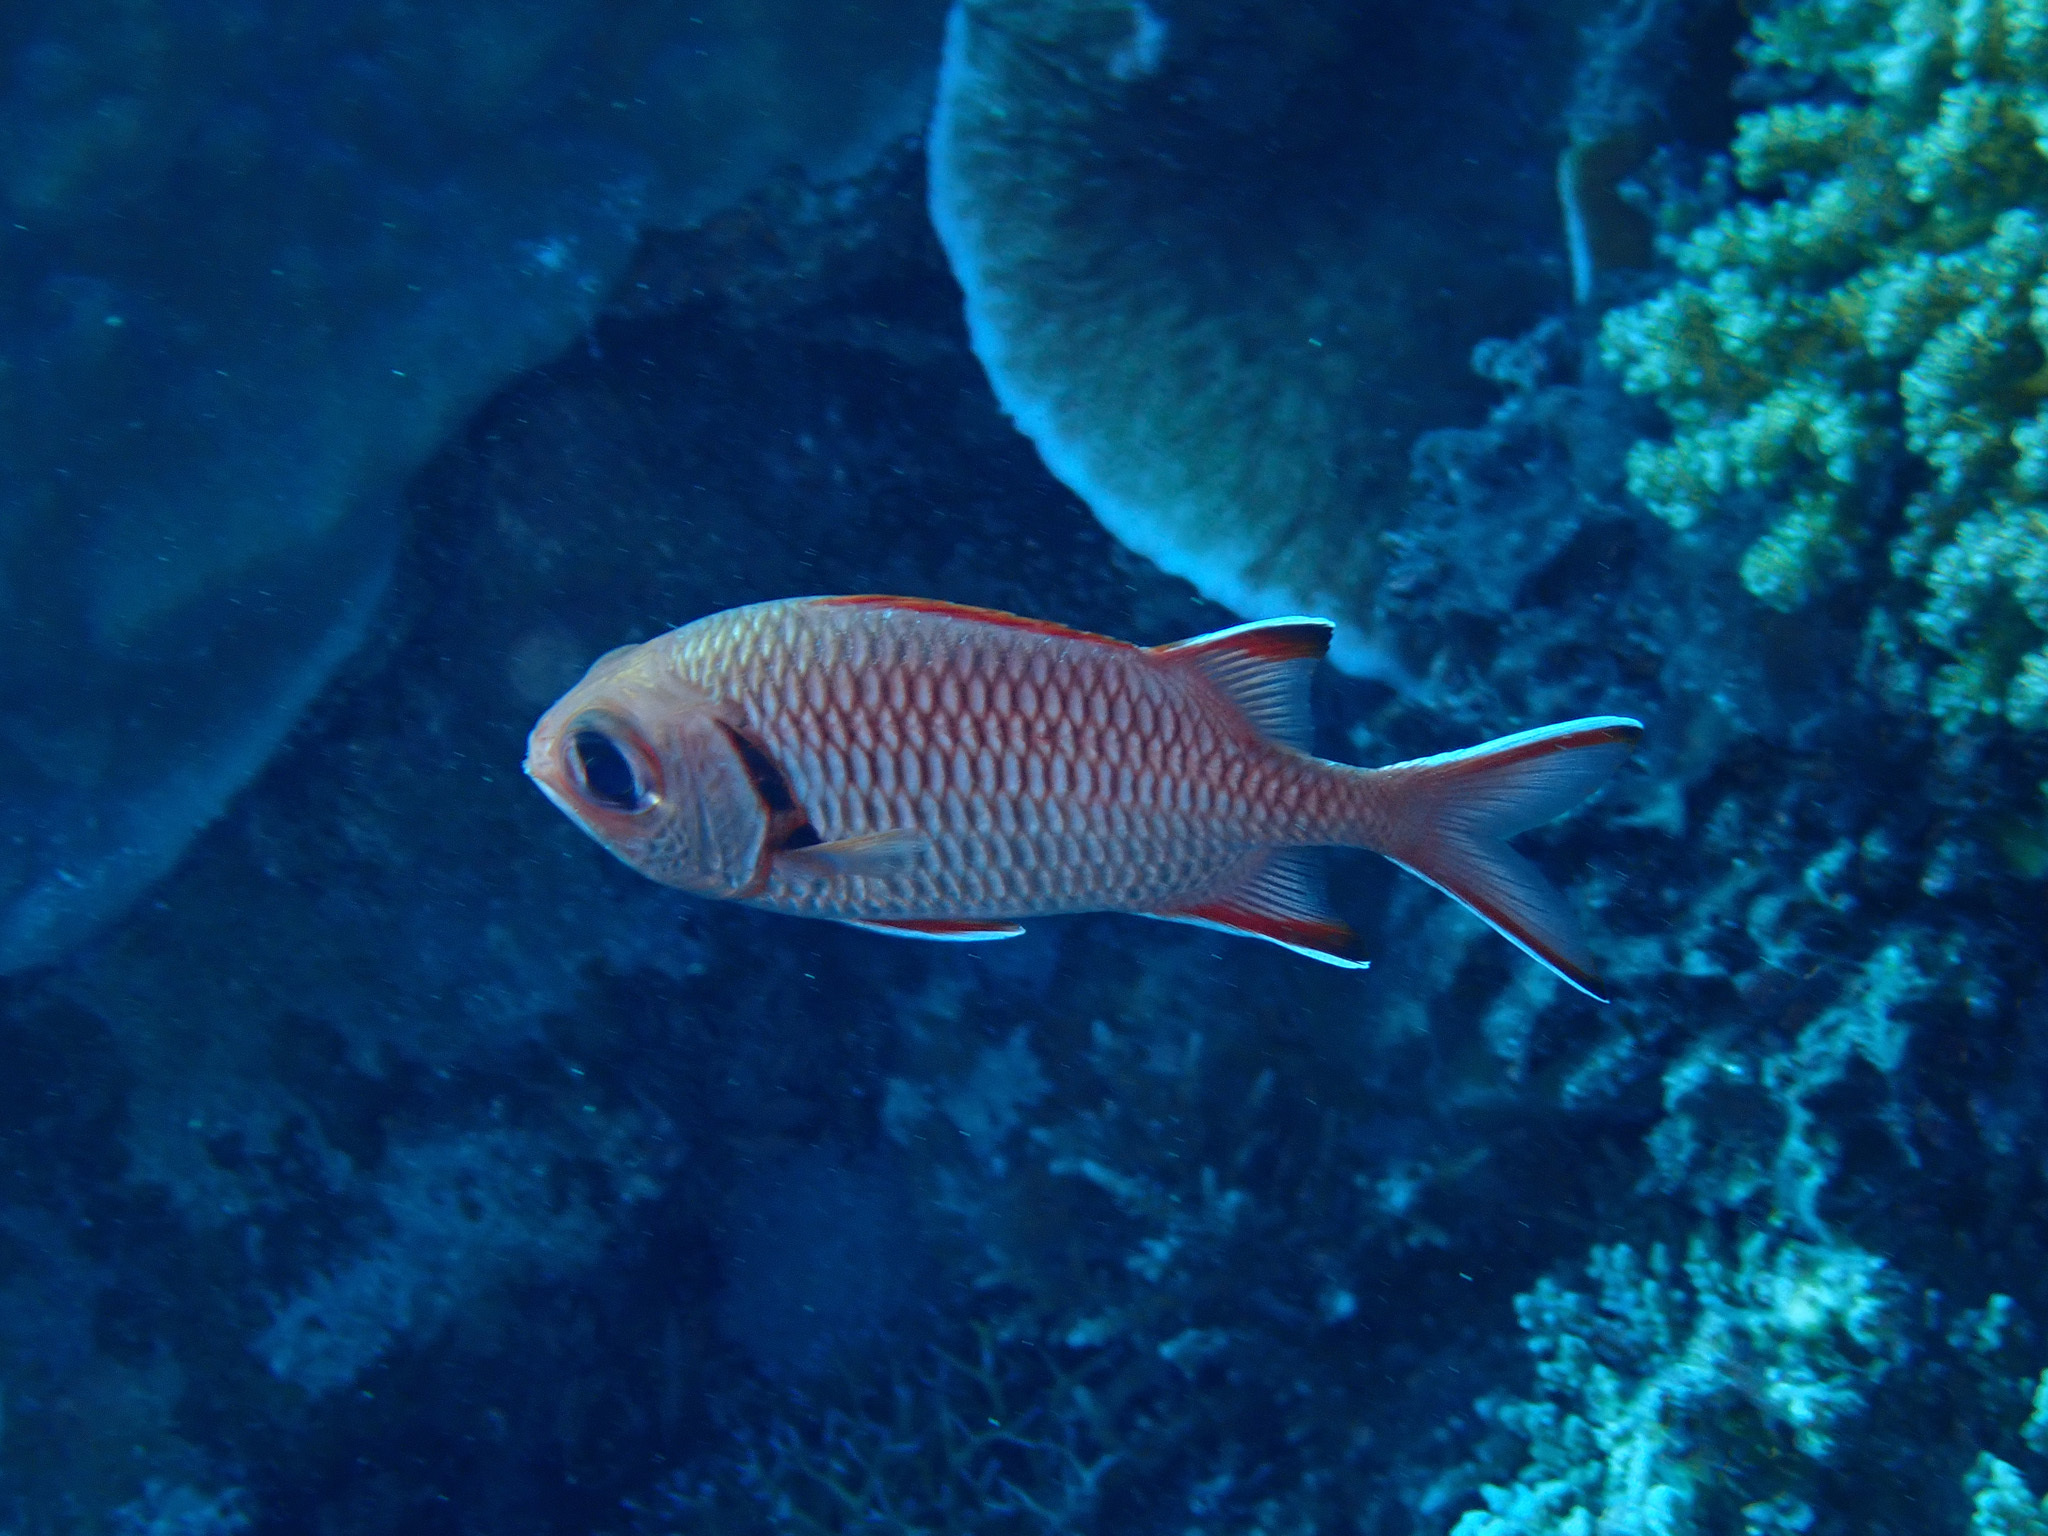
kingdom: Animalia
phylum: Chordata
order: Beryciformes
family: Holocentridae
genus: Myripristis
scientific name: Myripristis murdjan
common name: Big-eye soldierfish
